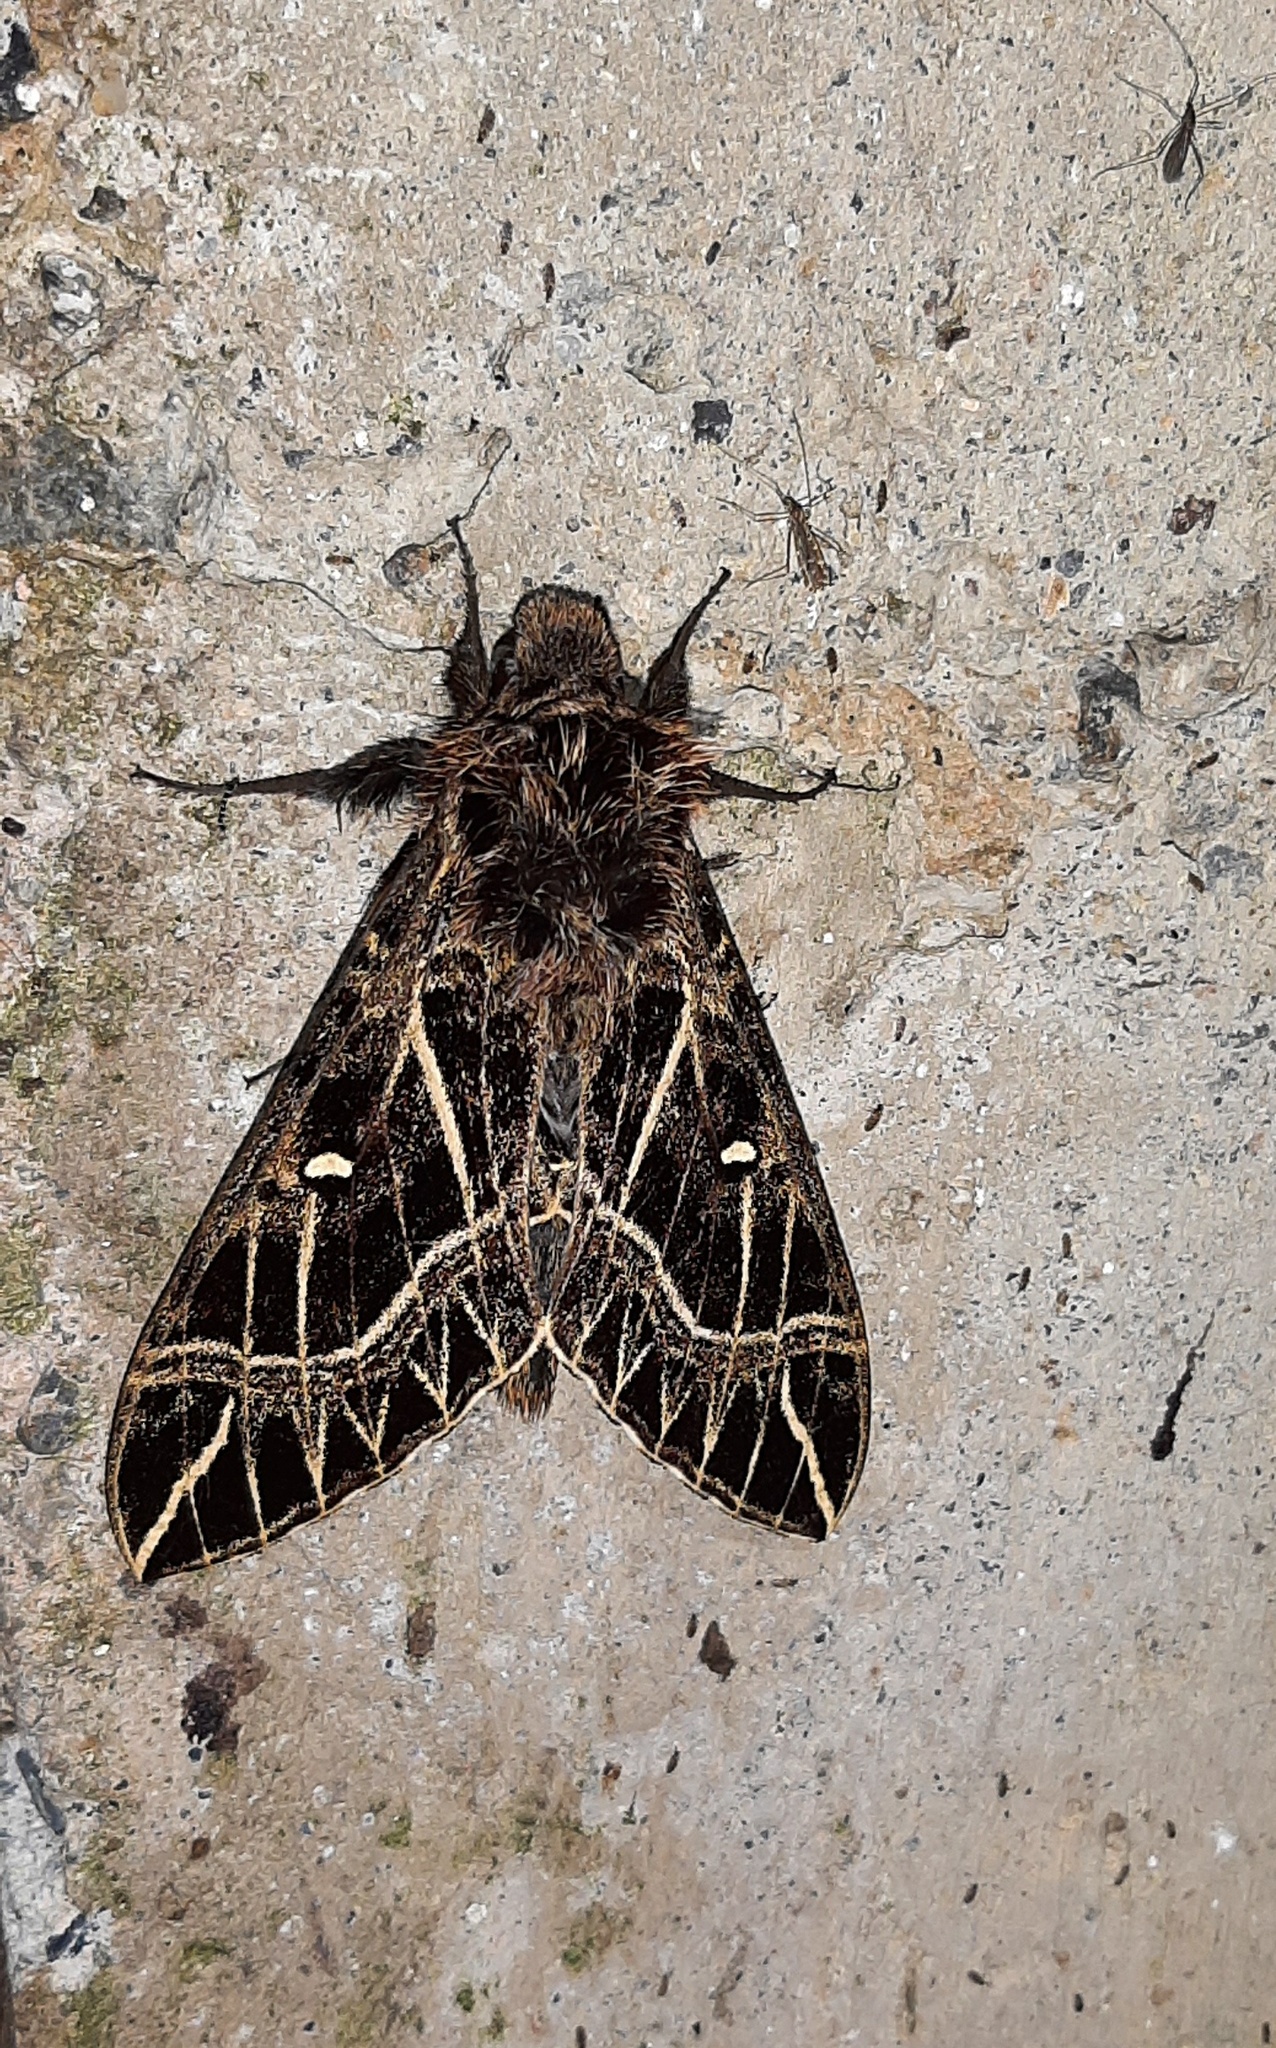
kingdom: Animalia
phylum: Arthropoda
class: Insecta
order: Lepidoptera
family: Sphingidae
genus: Euryglottis
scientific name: Euryglottis oliver
